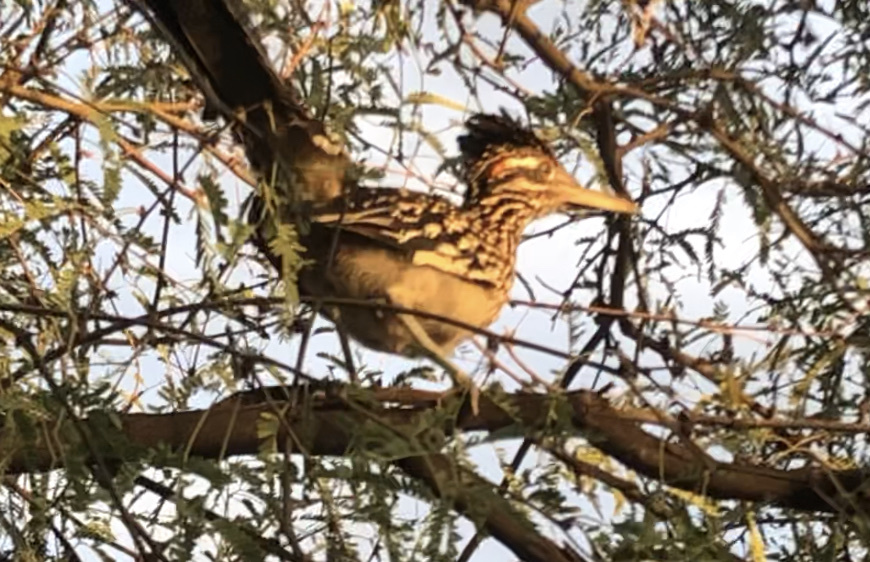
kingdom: Animalia
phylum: Chordata
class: Aves
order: Cuculiformes
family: Cuculidae
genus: Geococcyx
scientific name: Geococcyx californianus
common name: Greater roadrunner
